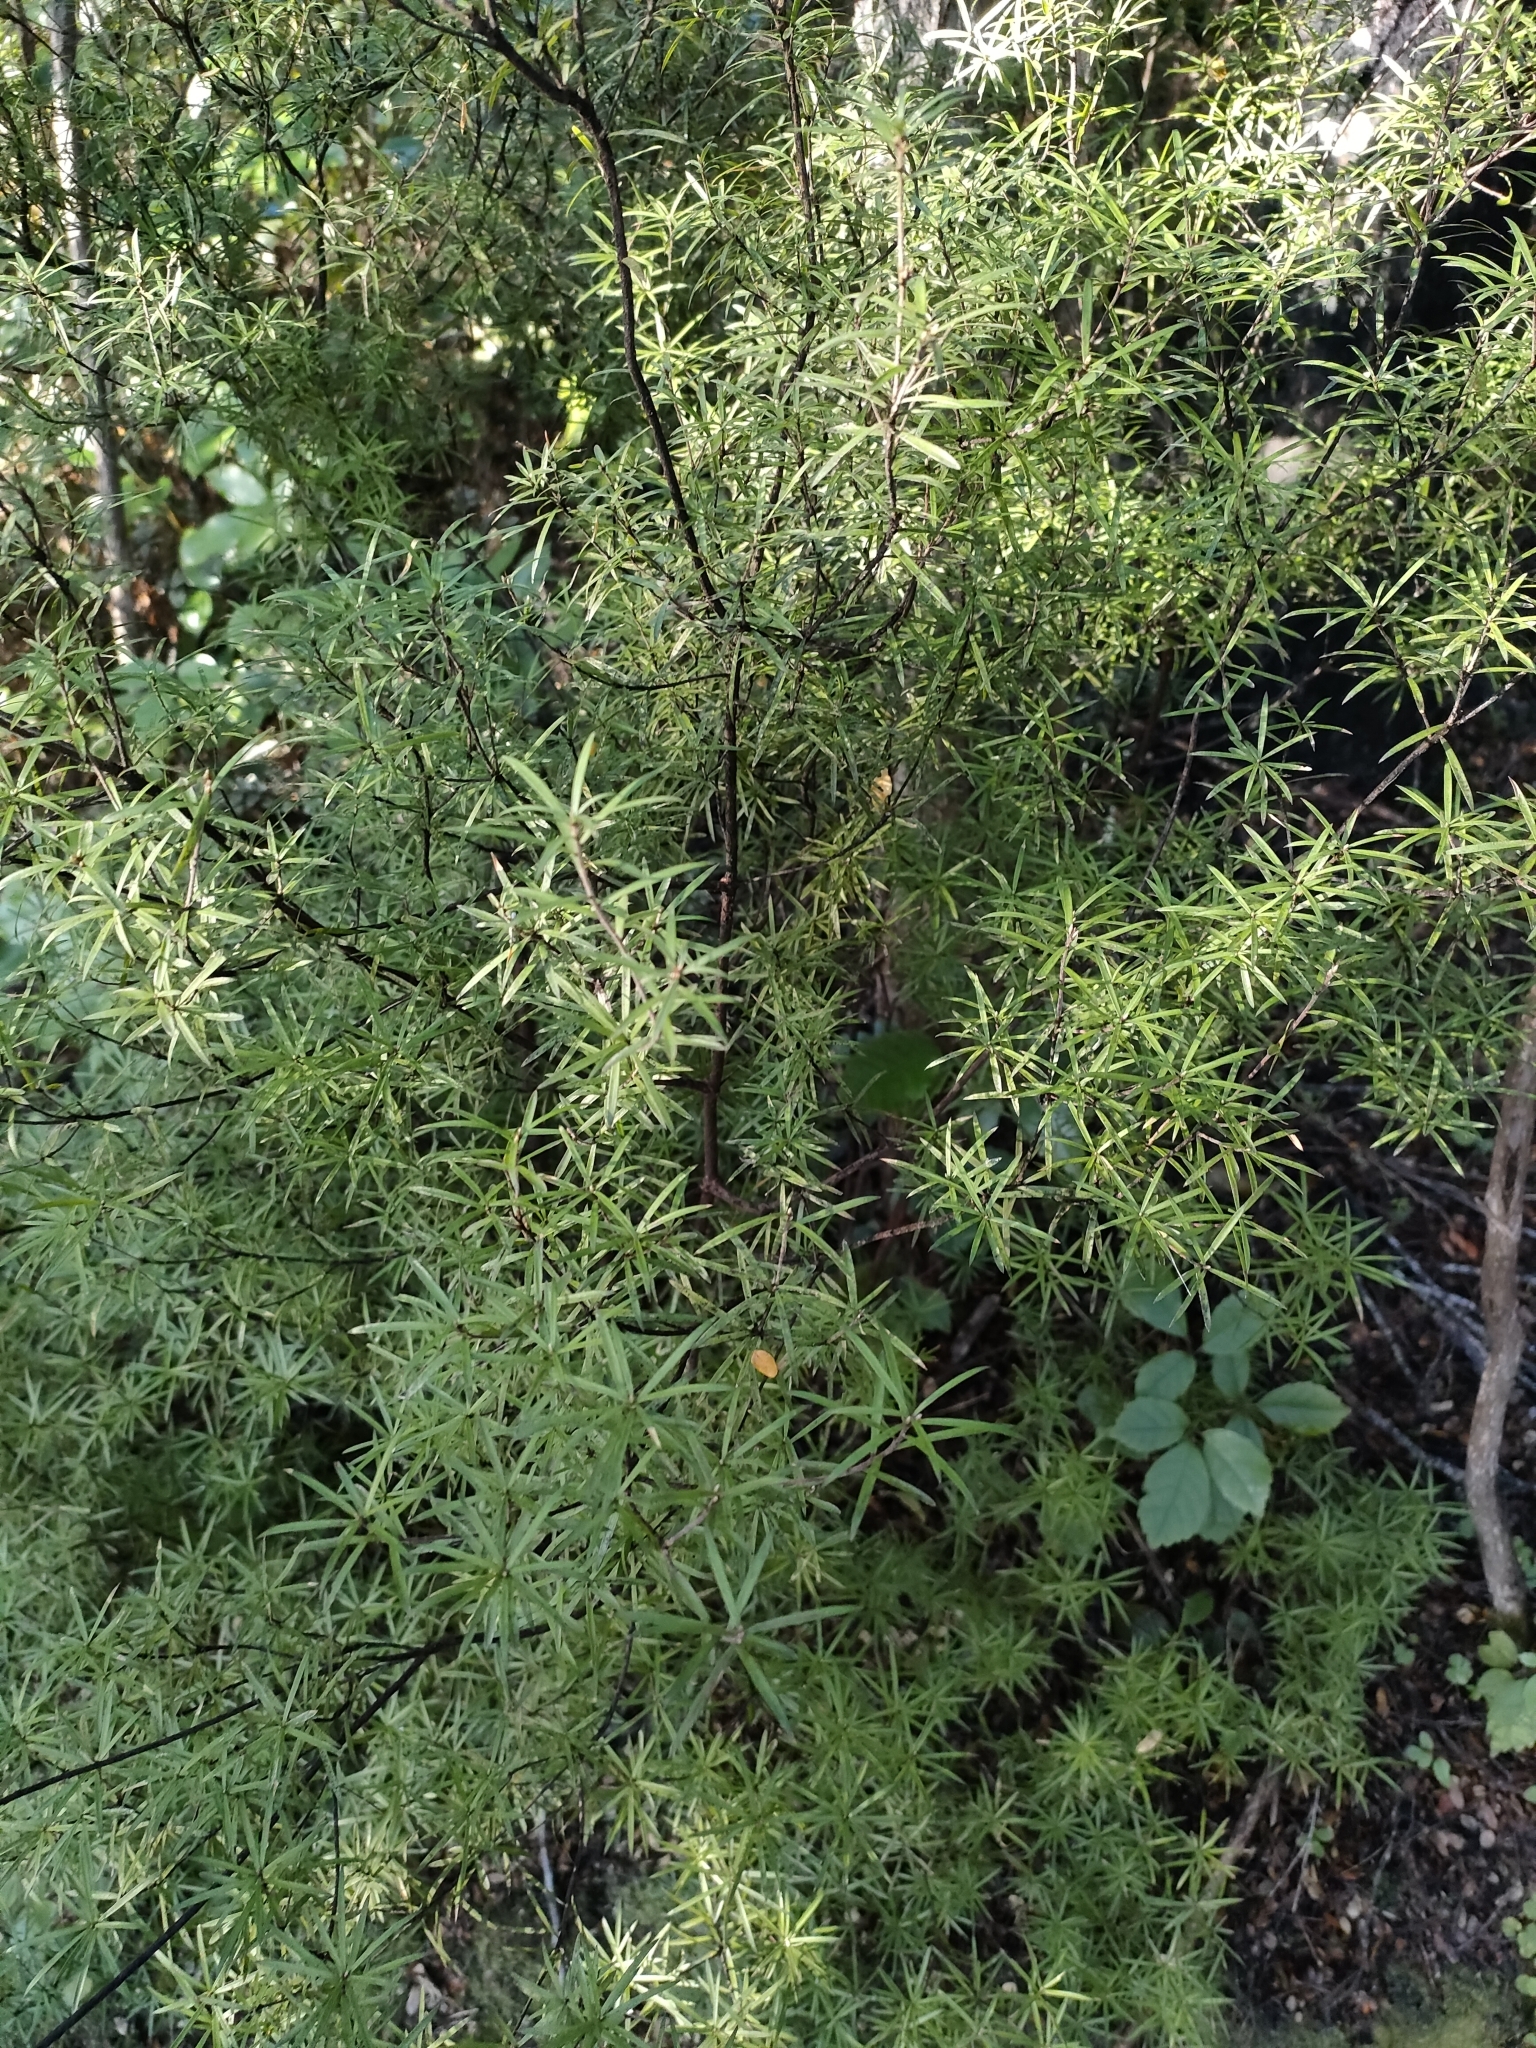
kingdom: Plantae
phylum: Tracheophyta
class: Magnoliopsida
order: Ericales
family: Ericaceae
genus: Leucopogon
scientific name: Leucopogon fasciculatus
